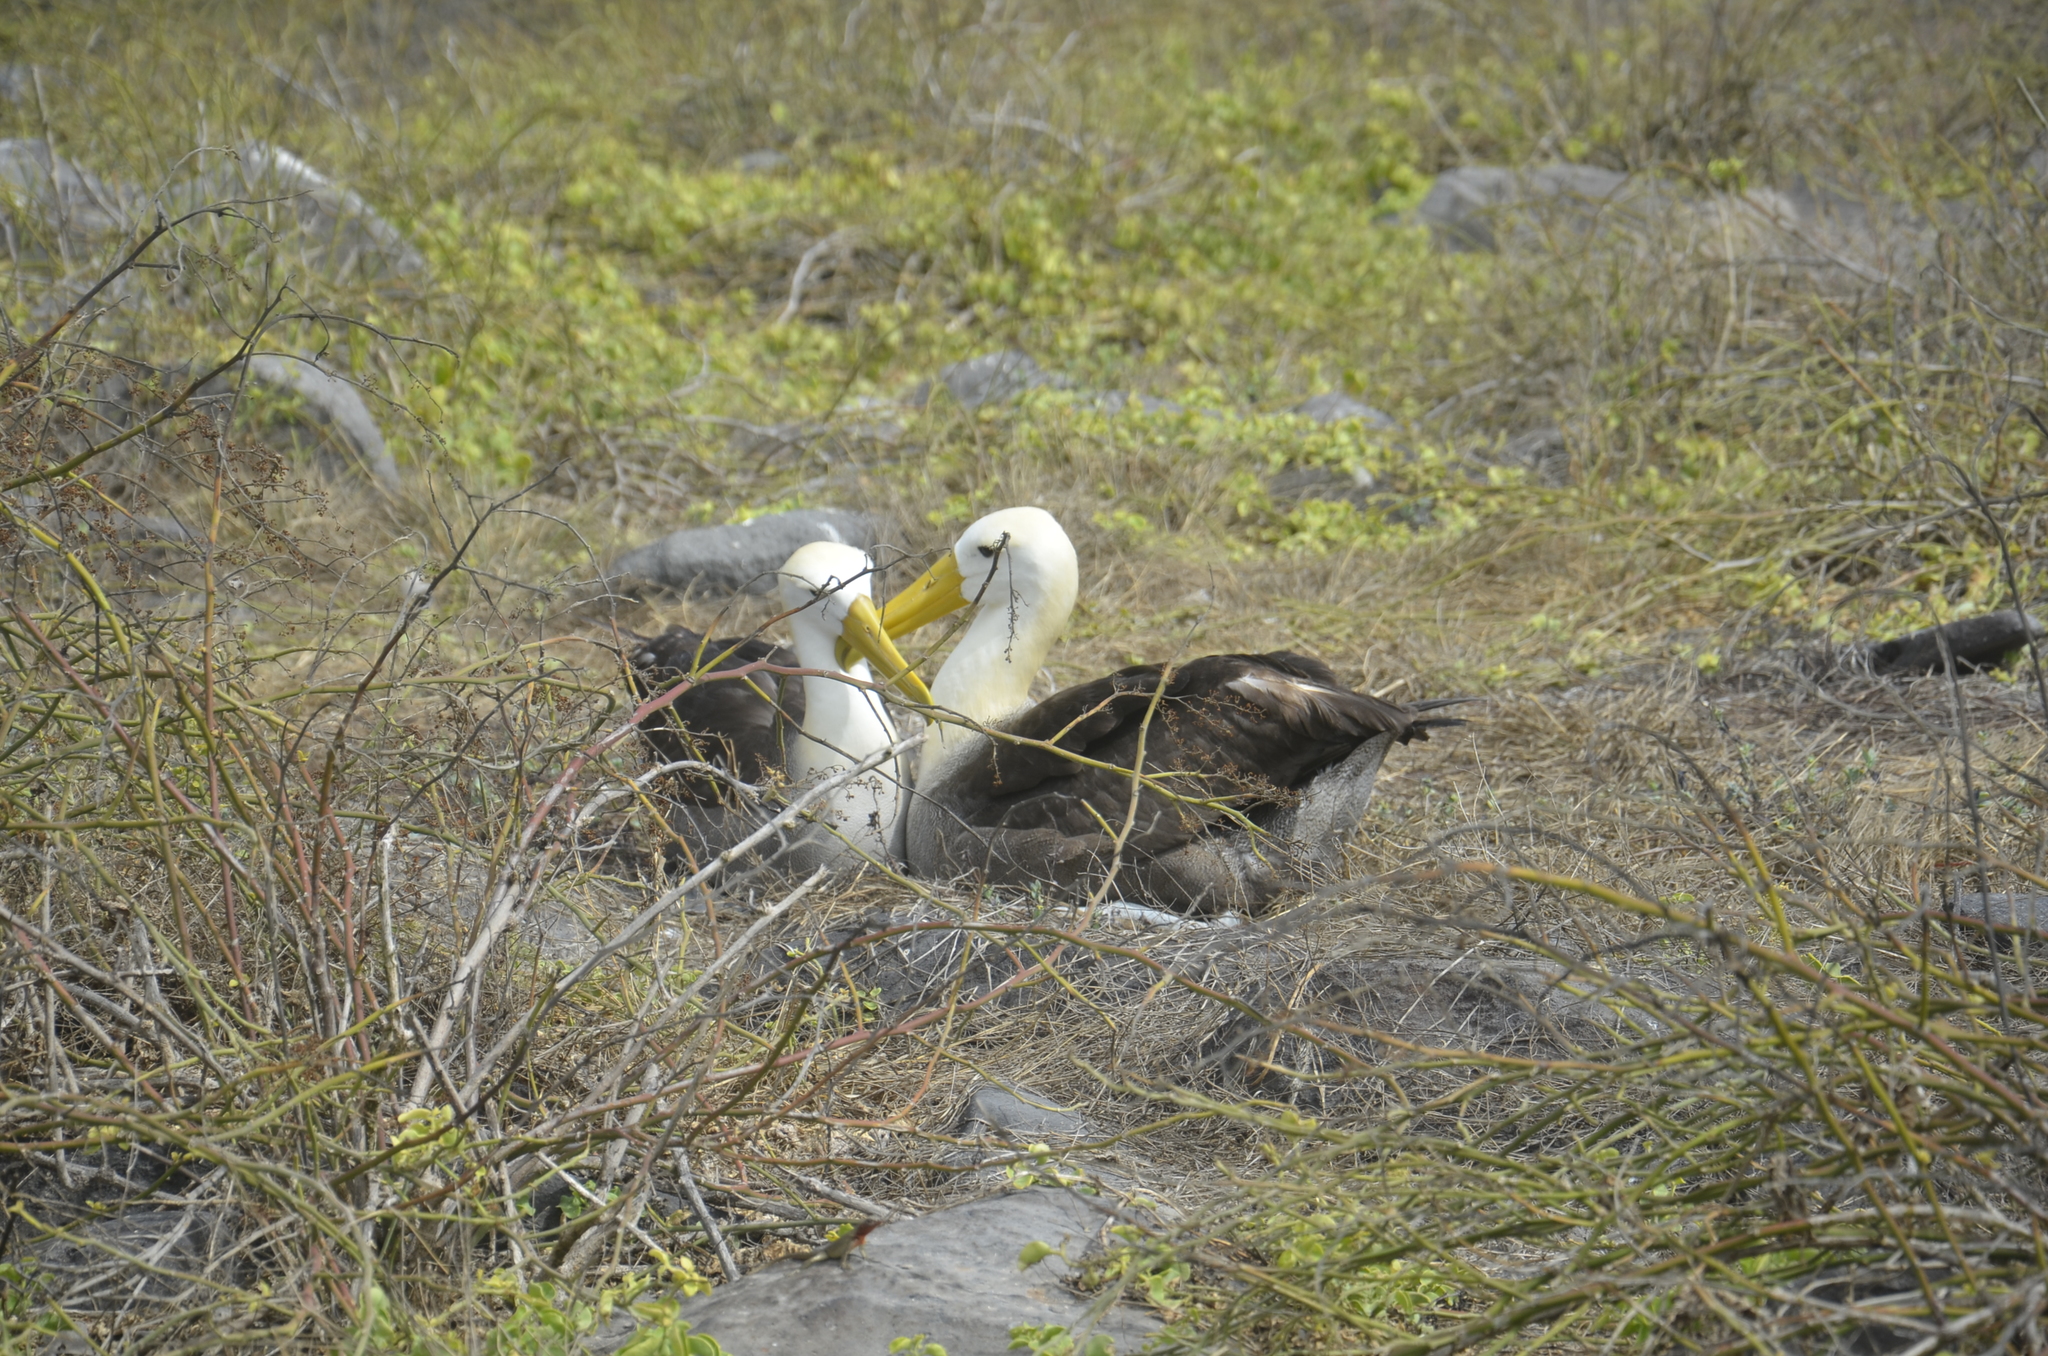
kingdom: Animalia
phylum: Chordata
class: Aves
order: Procellariiformes
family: Diomedeidae
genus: Phoebastria
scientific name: Phoebastria irrorata
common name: Waved albatross
